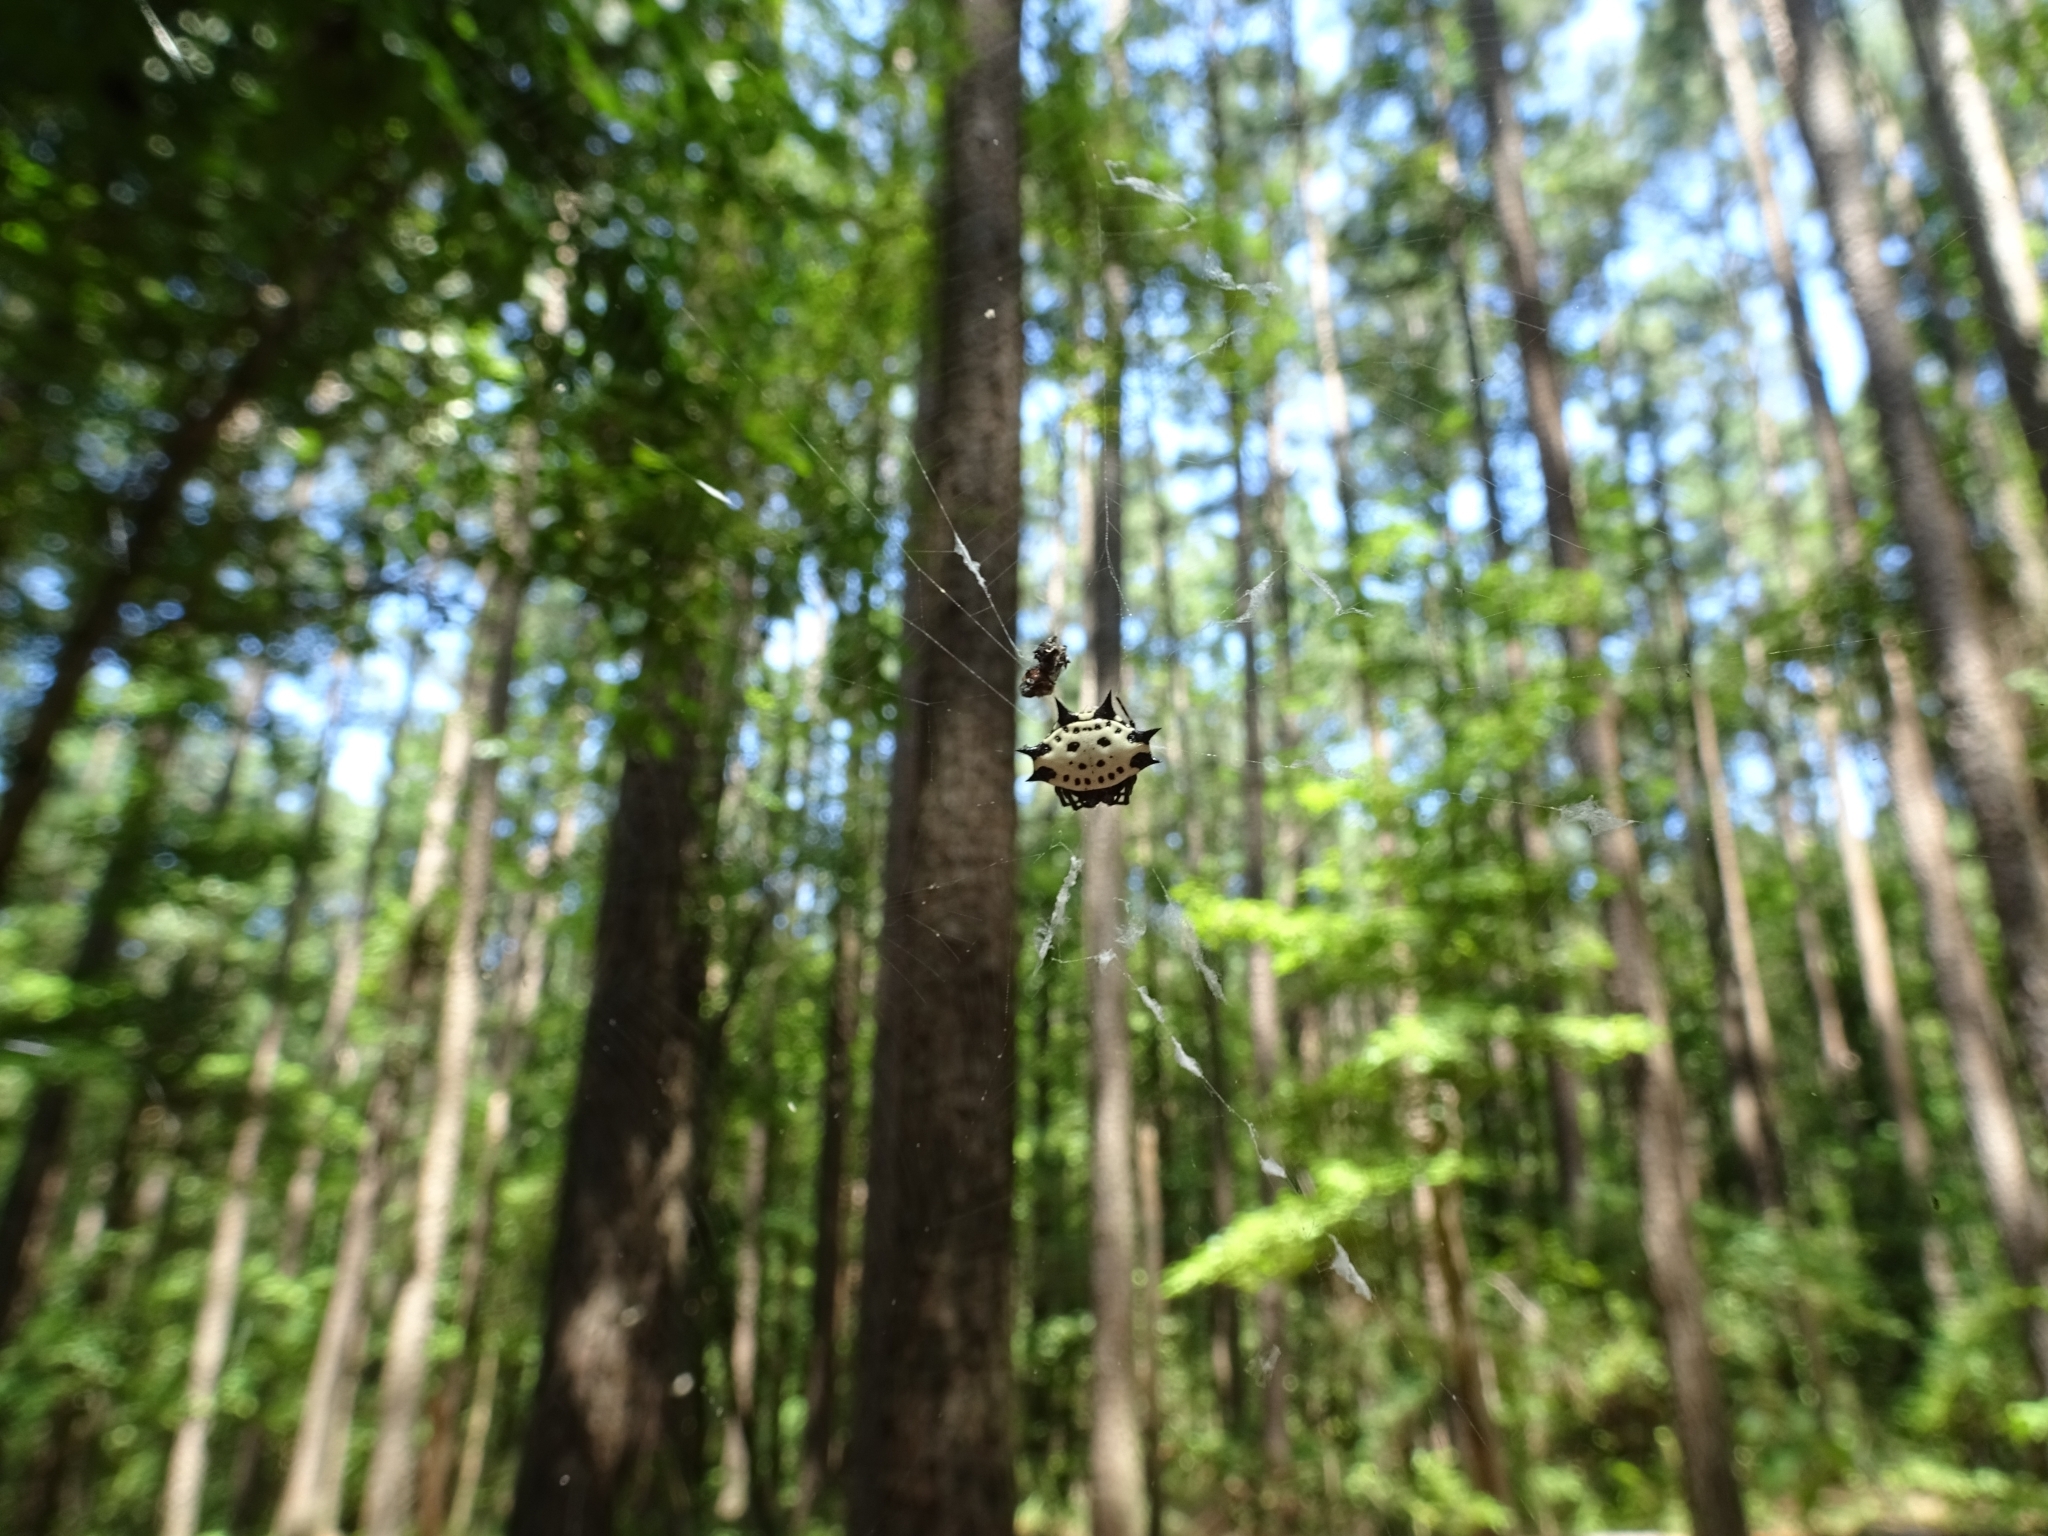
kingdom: Animalia
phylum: Arthropoda
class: Arachnida
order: Araneae
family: Araneidae
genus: Gasteracantha
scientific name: Gasteracantha cancriformis
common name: Orb weavers
